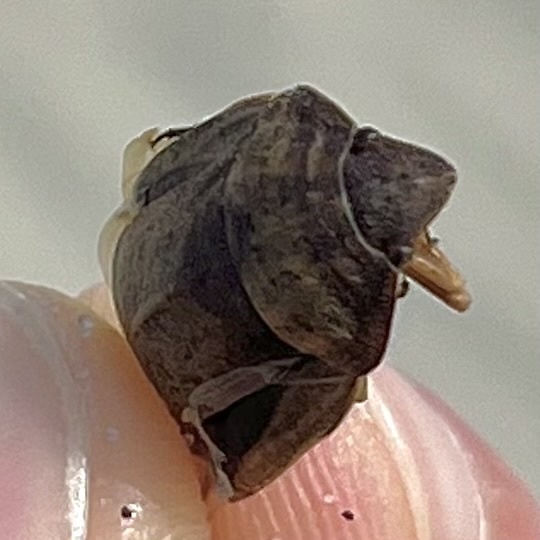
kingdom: Animalia
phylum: Arthropoda
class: Insecta
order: Hemiptera
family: Scutelleridae
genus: Eurygaster
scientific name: Eurygaster austriaca
